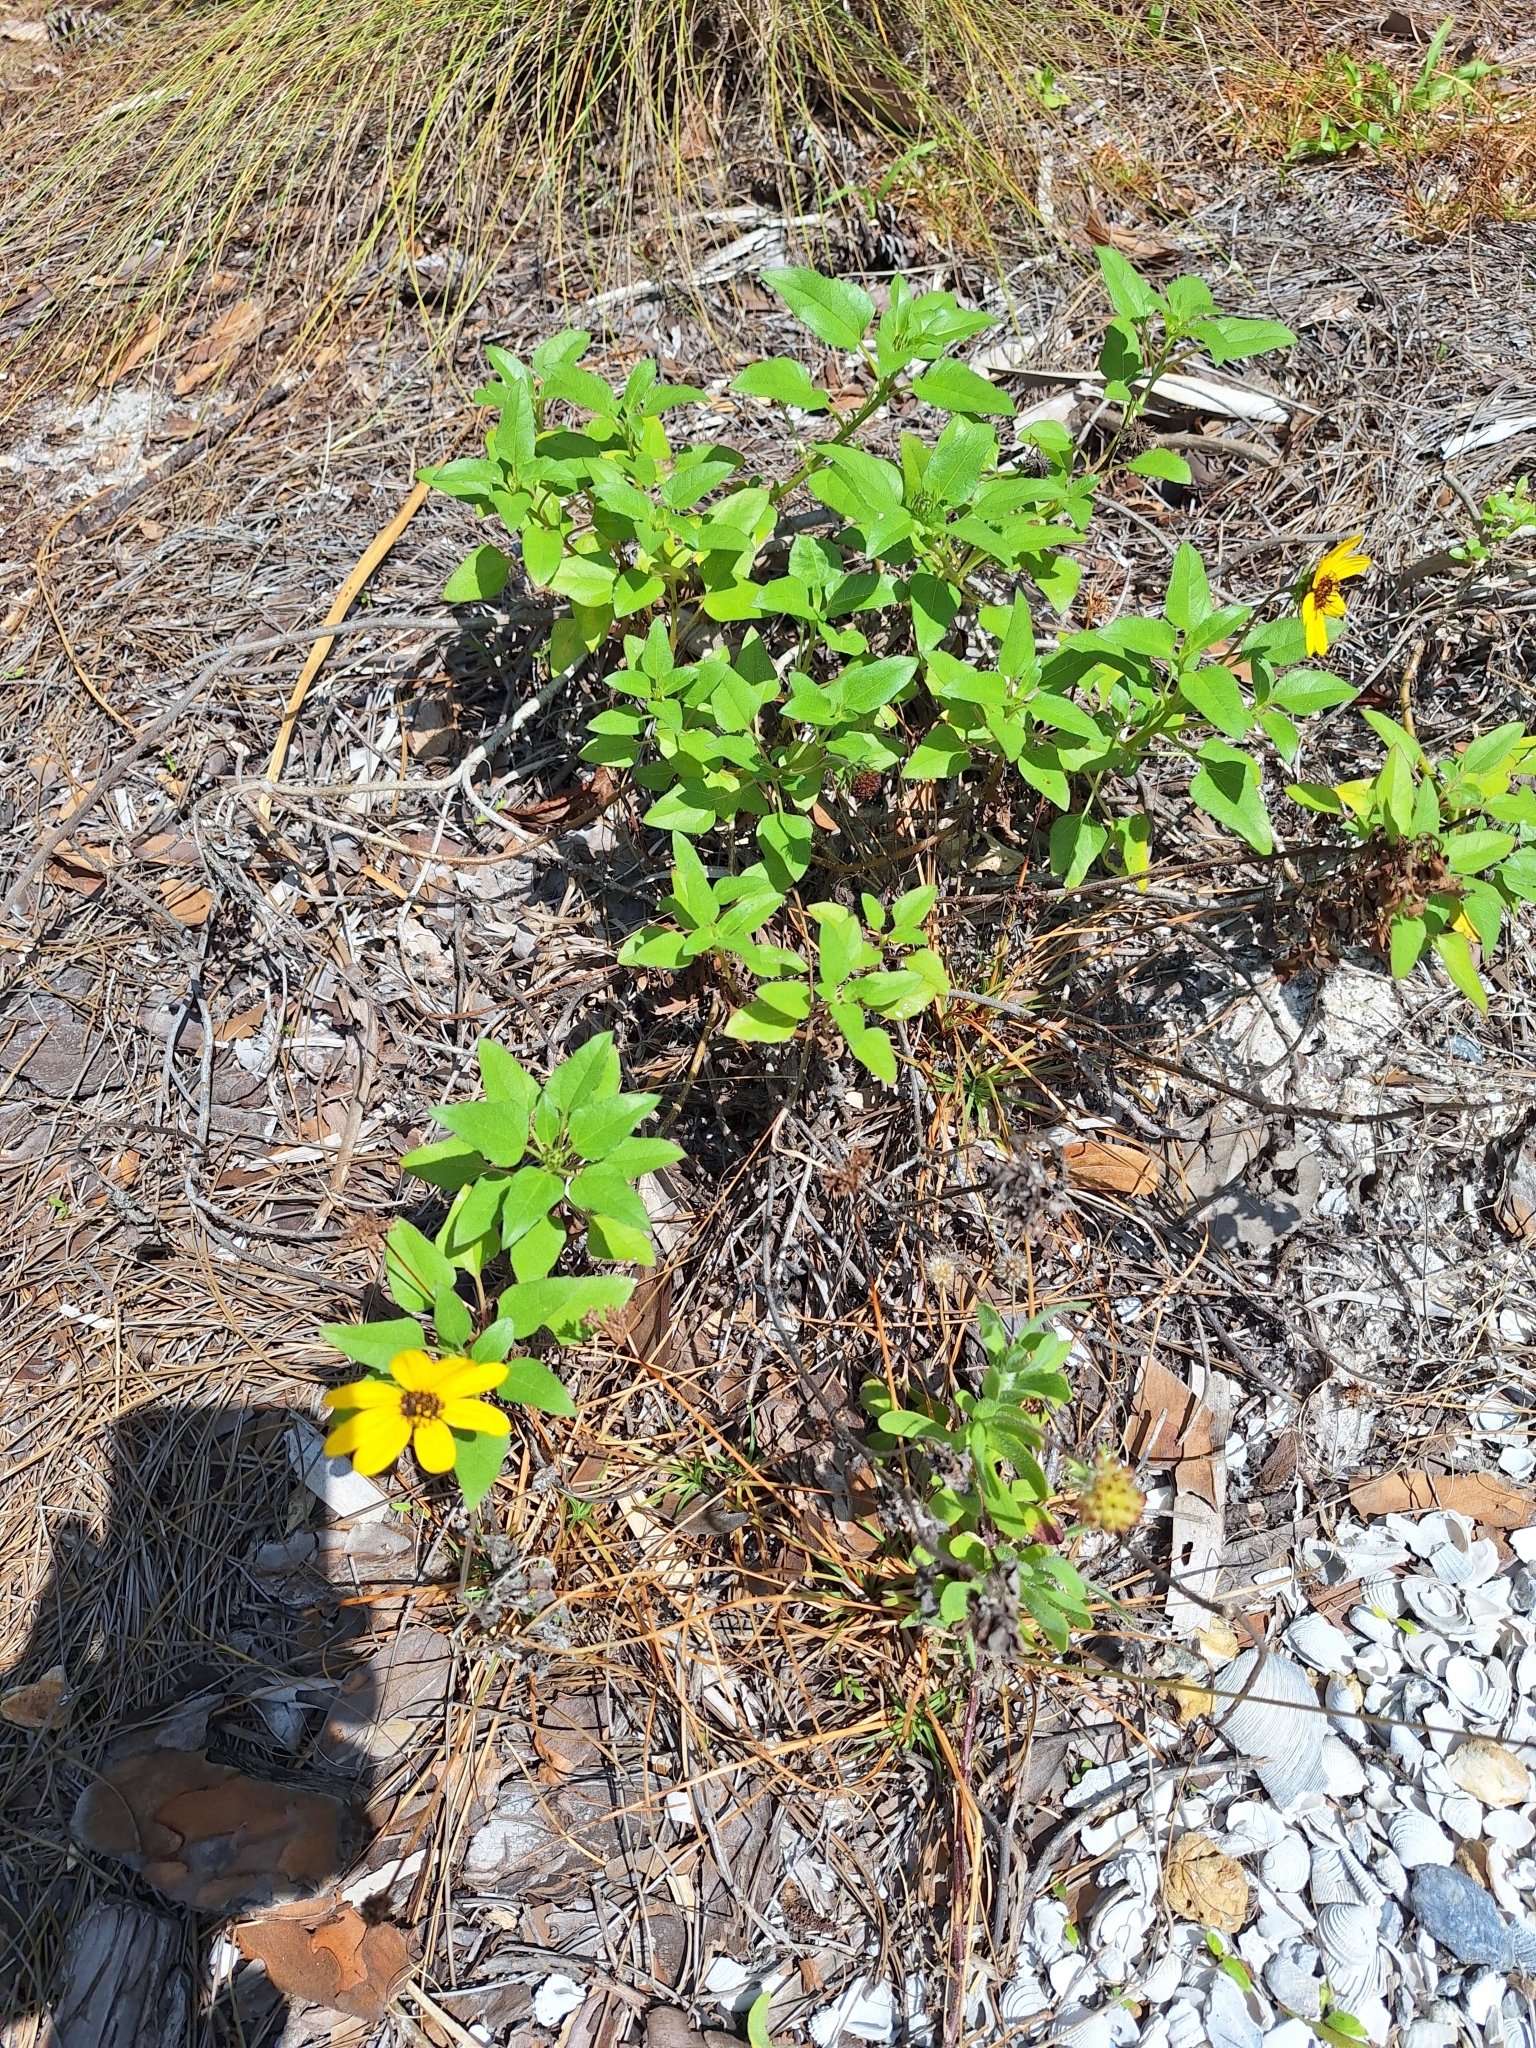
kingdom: Plantae
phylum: Tracheophyta
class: Magnoliopsida
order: Asterales
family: Asteraceae
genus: Helianthus
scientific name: Helianthus debilis
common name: Weak sunflower
